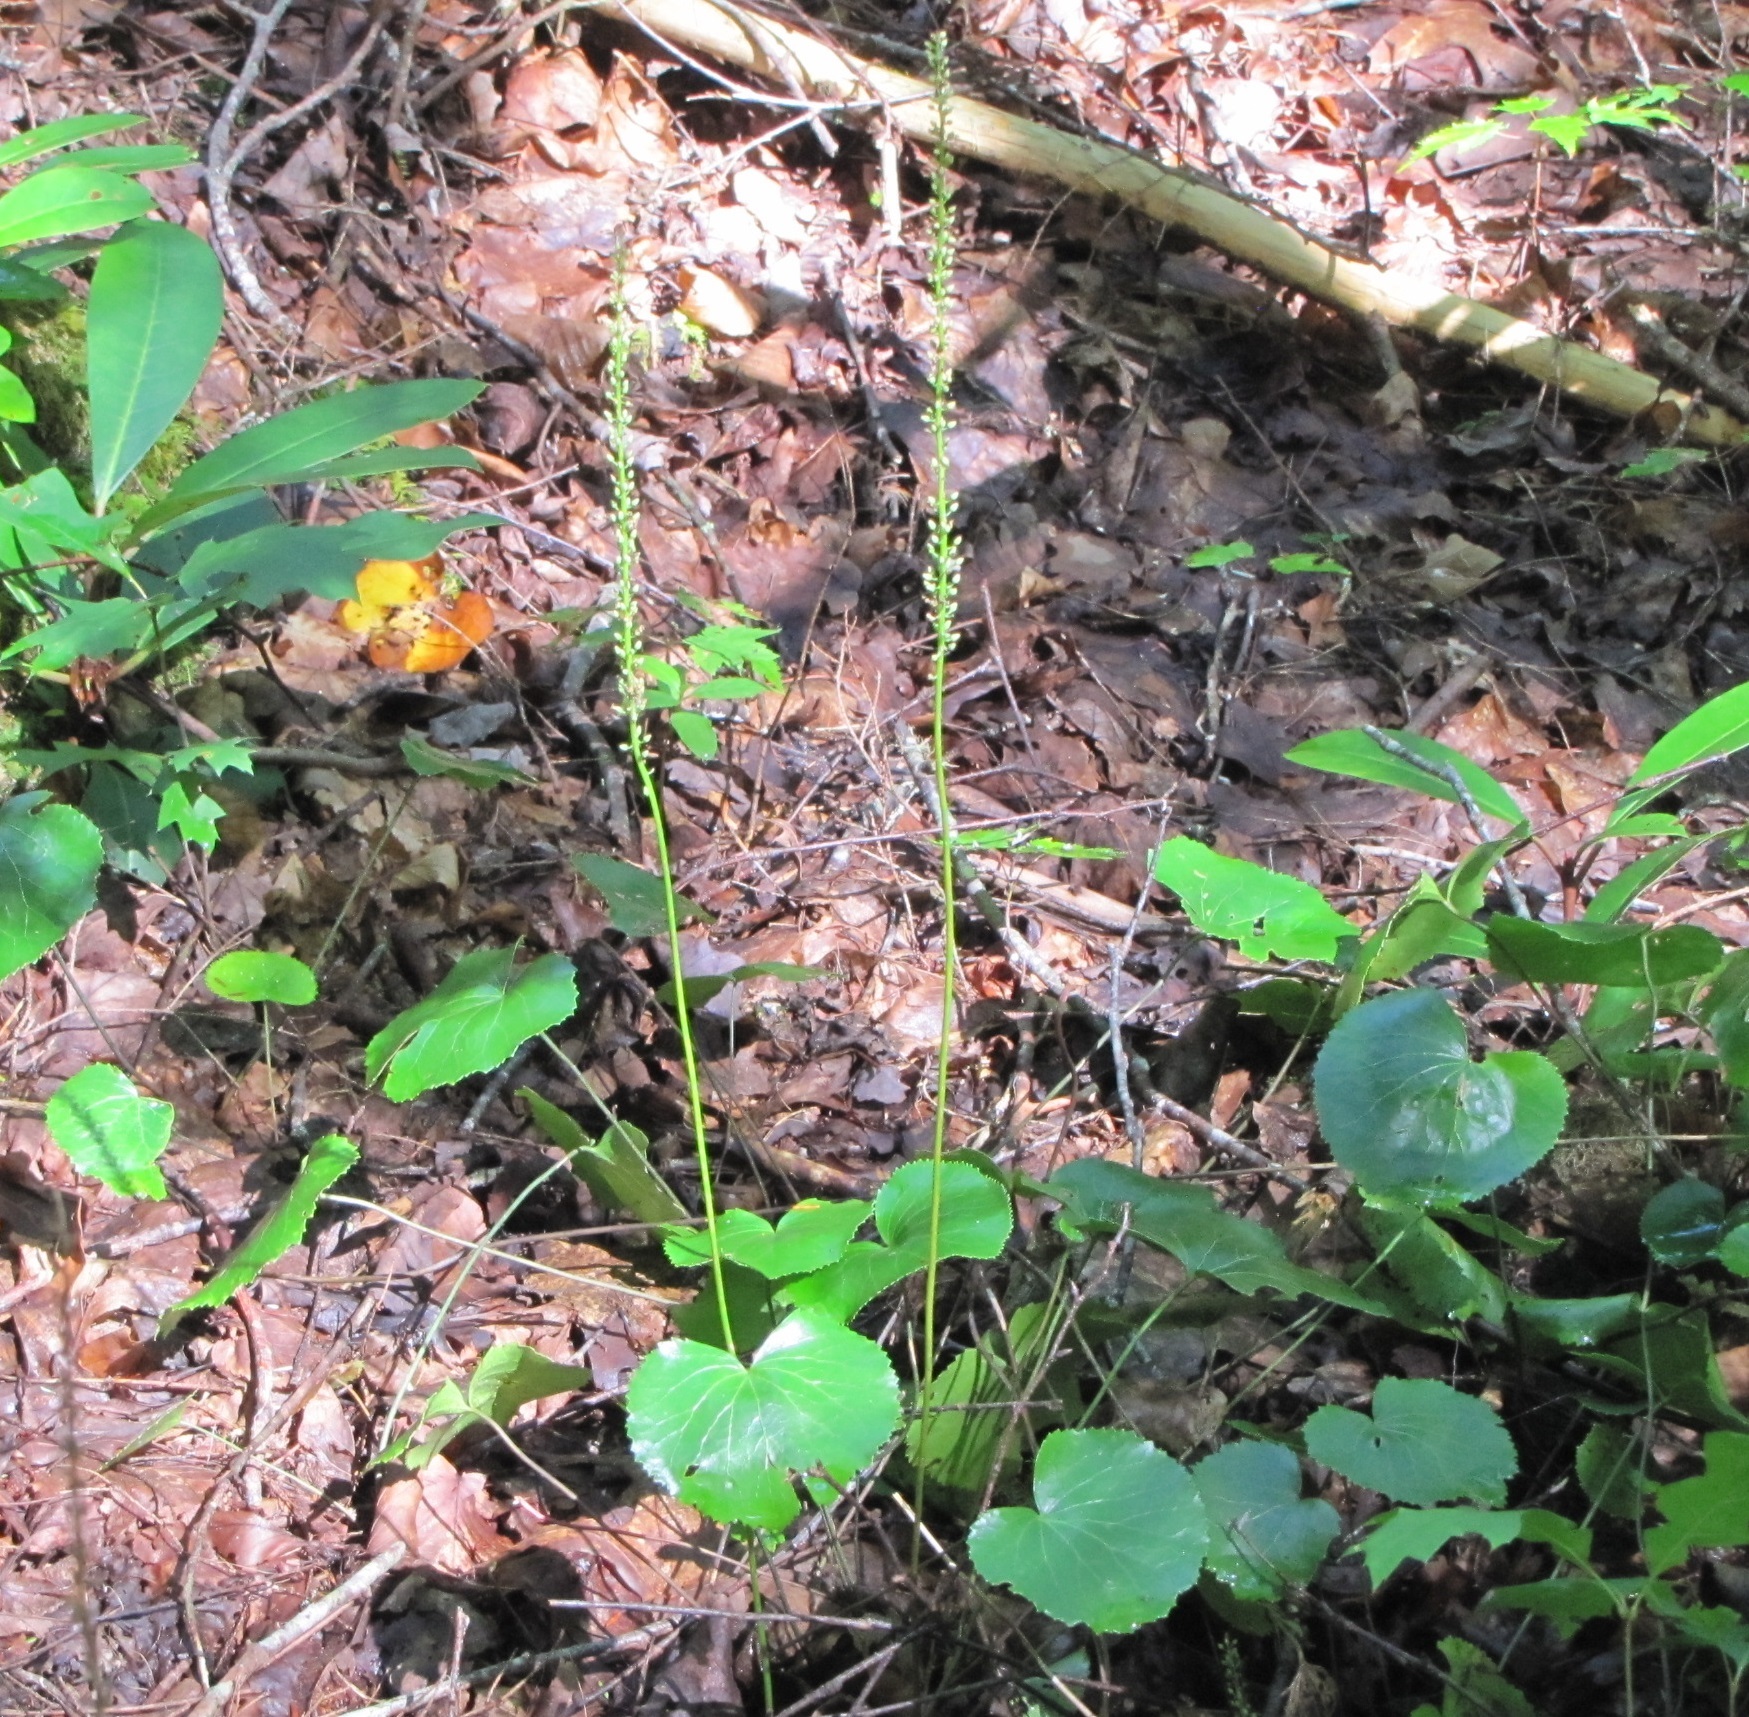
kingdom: Plantae
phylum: Tracheophyta
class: Magnoliopsida
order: Ericales
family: Diapensiaceae
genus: Galax
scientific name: Galax urceolata
